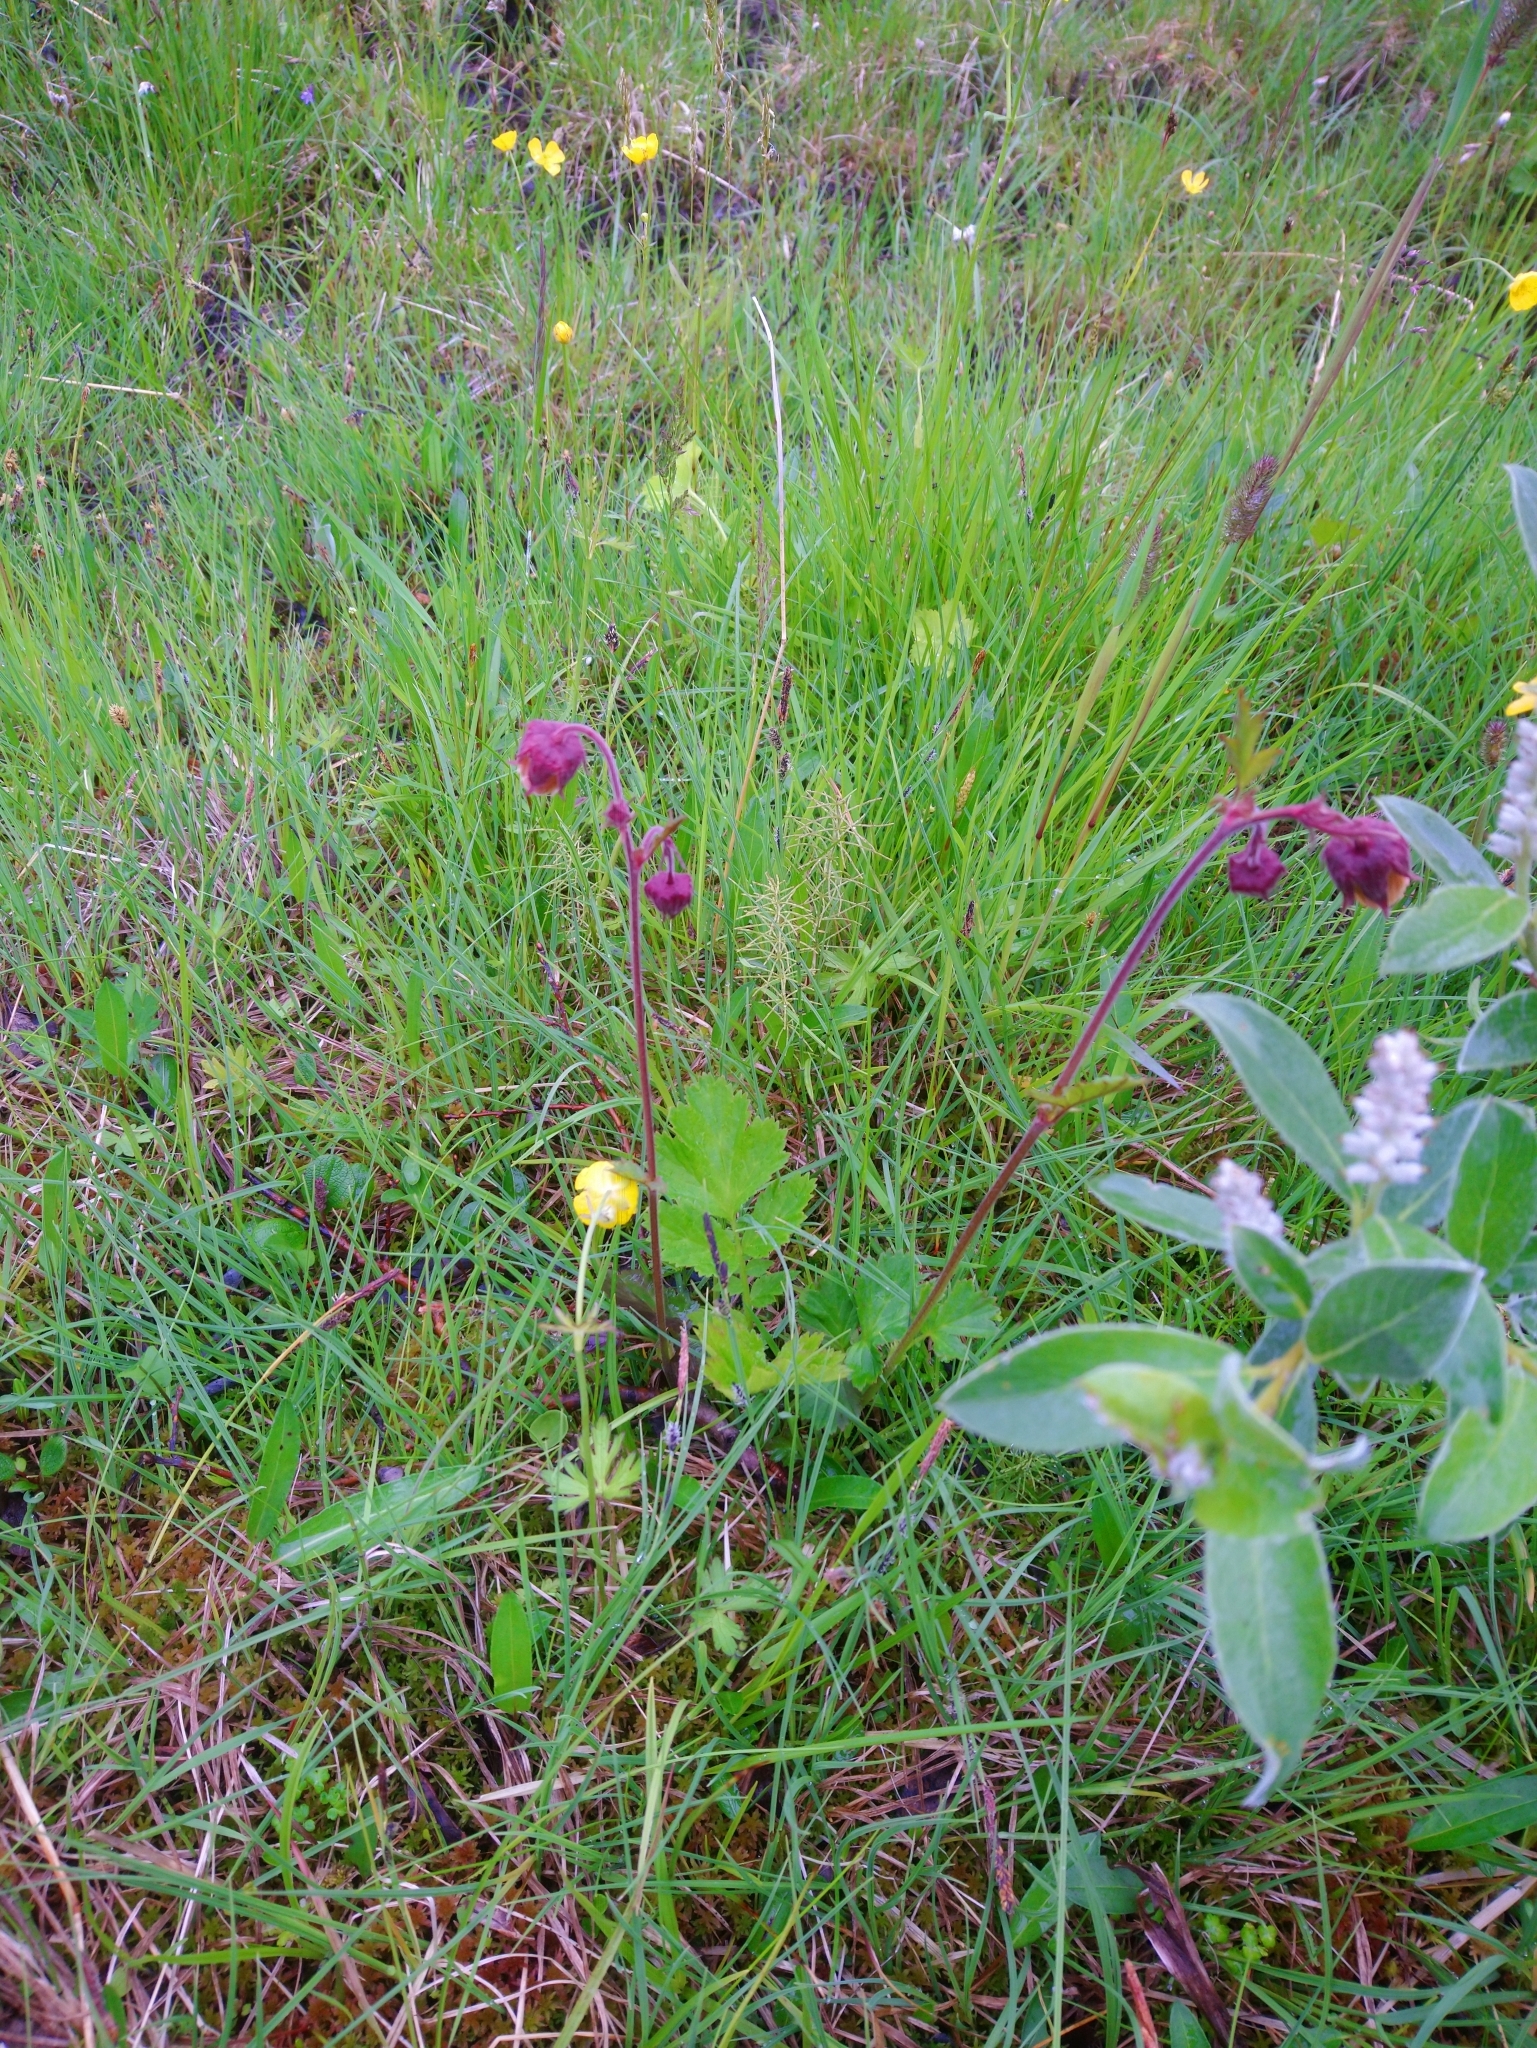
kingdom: Plantae
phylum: Tracheophyta
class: Magnoliopsida
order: Rosales
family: Rosaceae
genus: Geum
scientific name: Geum rivale
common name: Water avens
